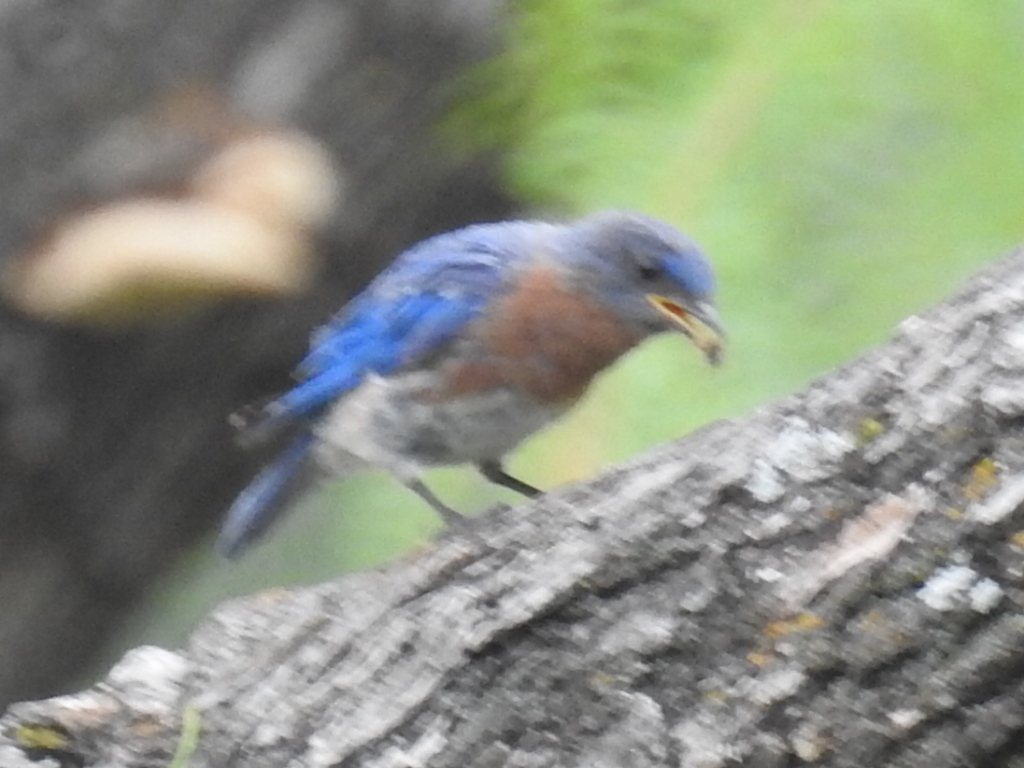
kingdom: Animalia
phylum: Chordata
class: Aves
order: Passeriformes
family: Turdidae
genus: Sialia
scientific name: Sialia sialis
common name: Eastern bluebird
